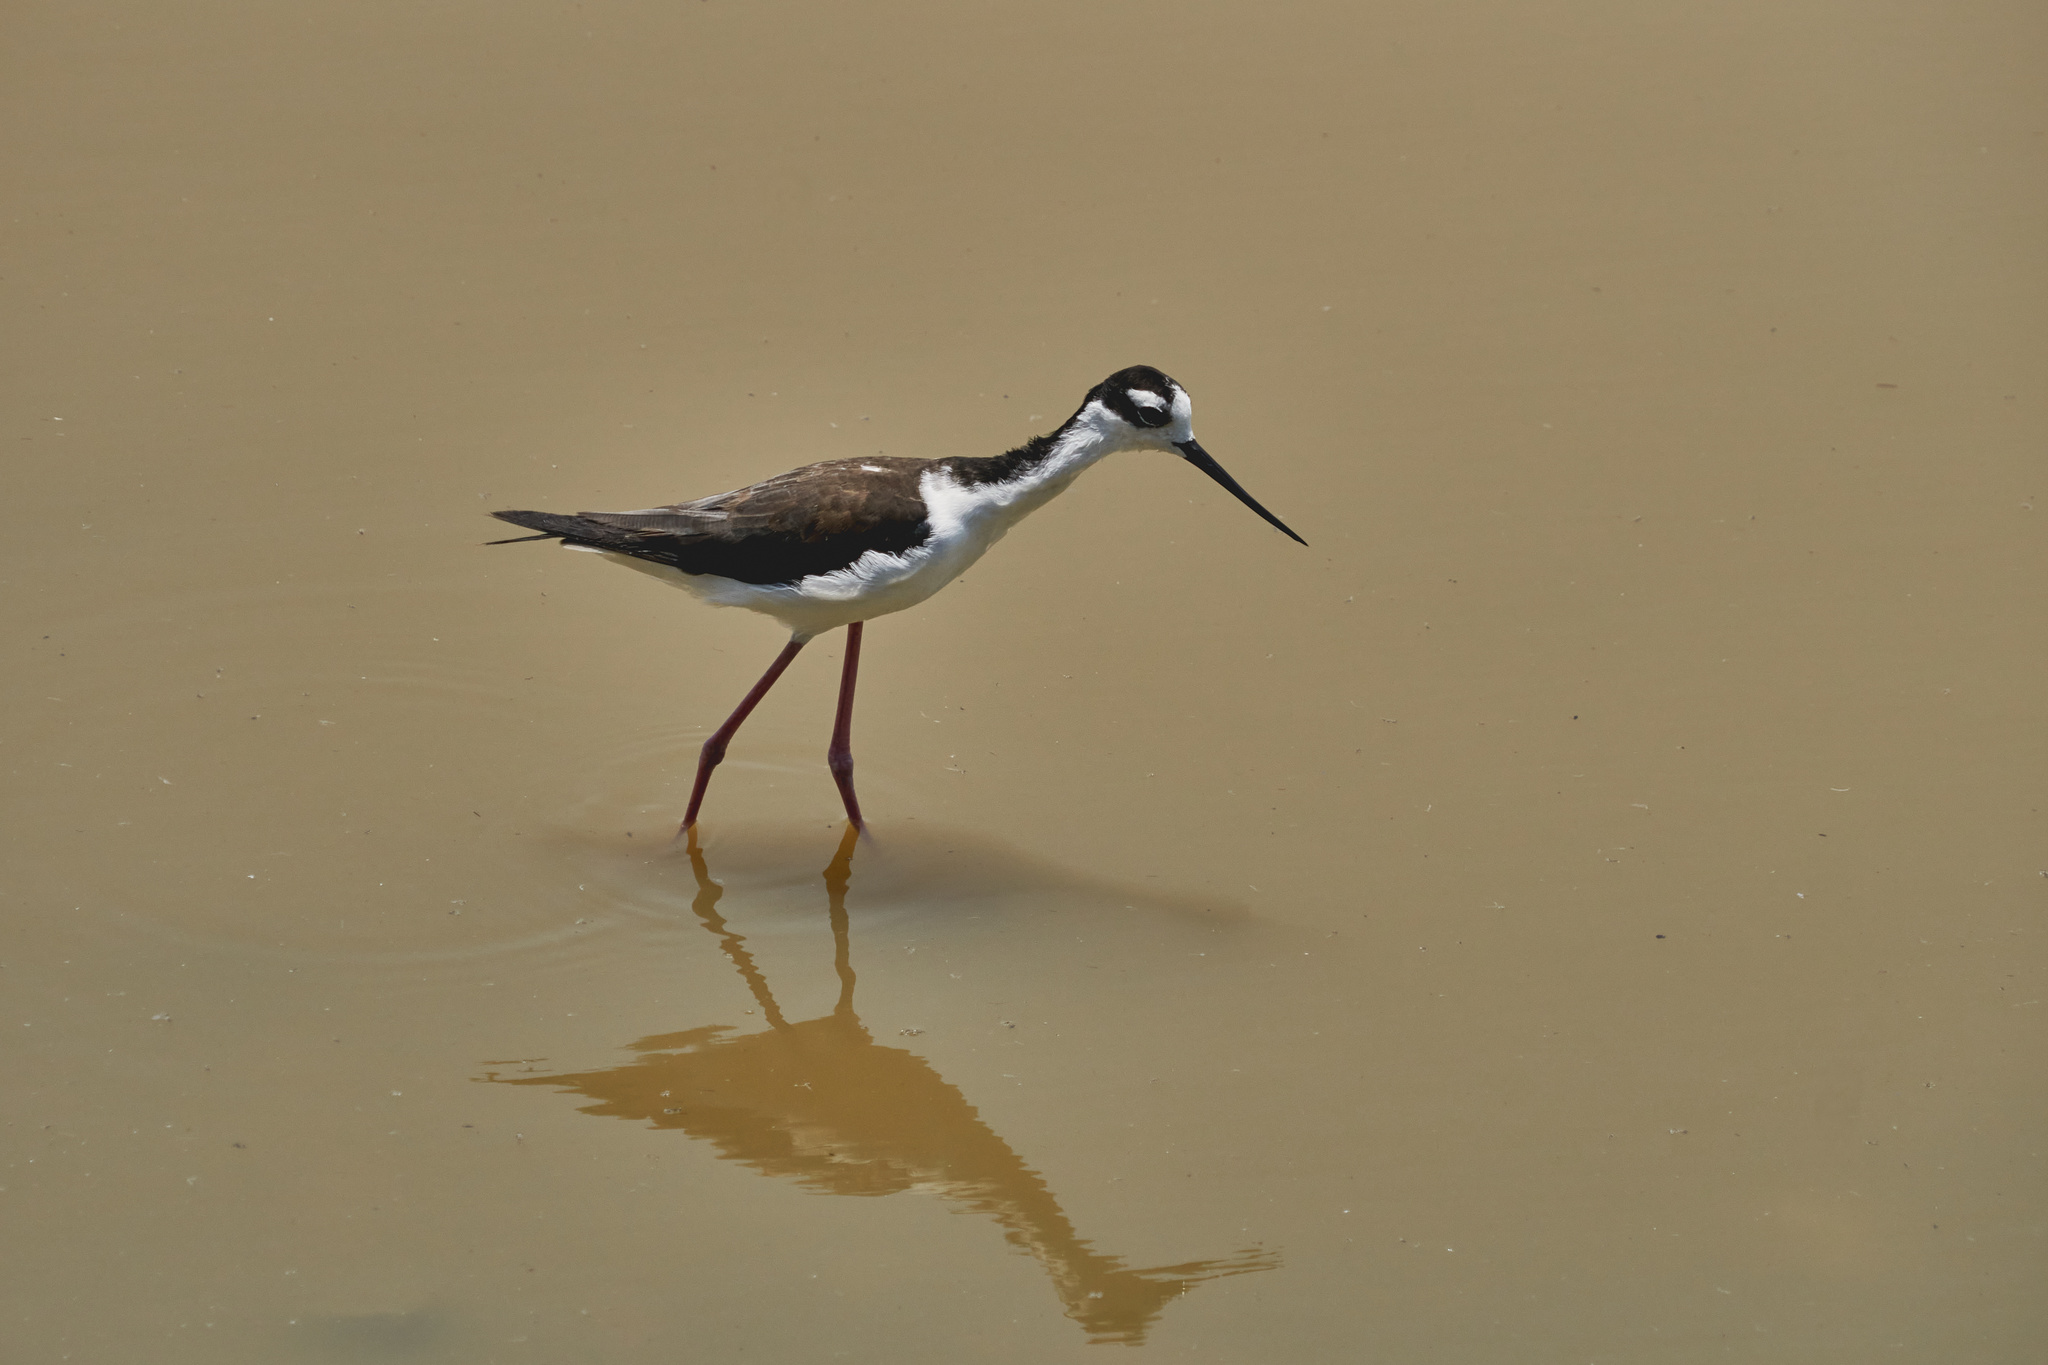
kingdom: Animalia
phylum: Chordata
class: Aves
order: Charadriiformes
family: Recurvirostridae
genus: Himantopus
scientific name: Himantopus mexicanus
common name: Black-necked stilt
